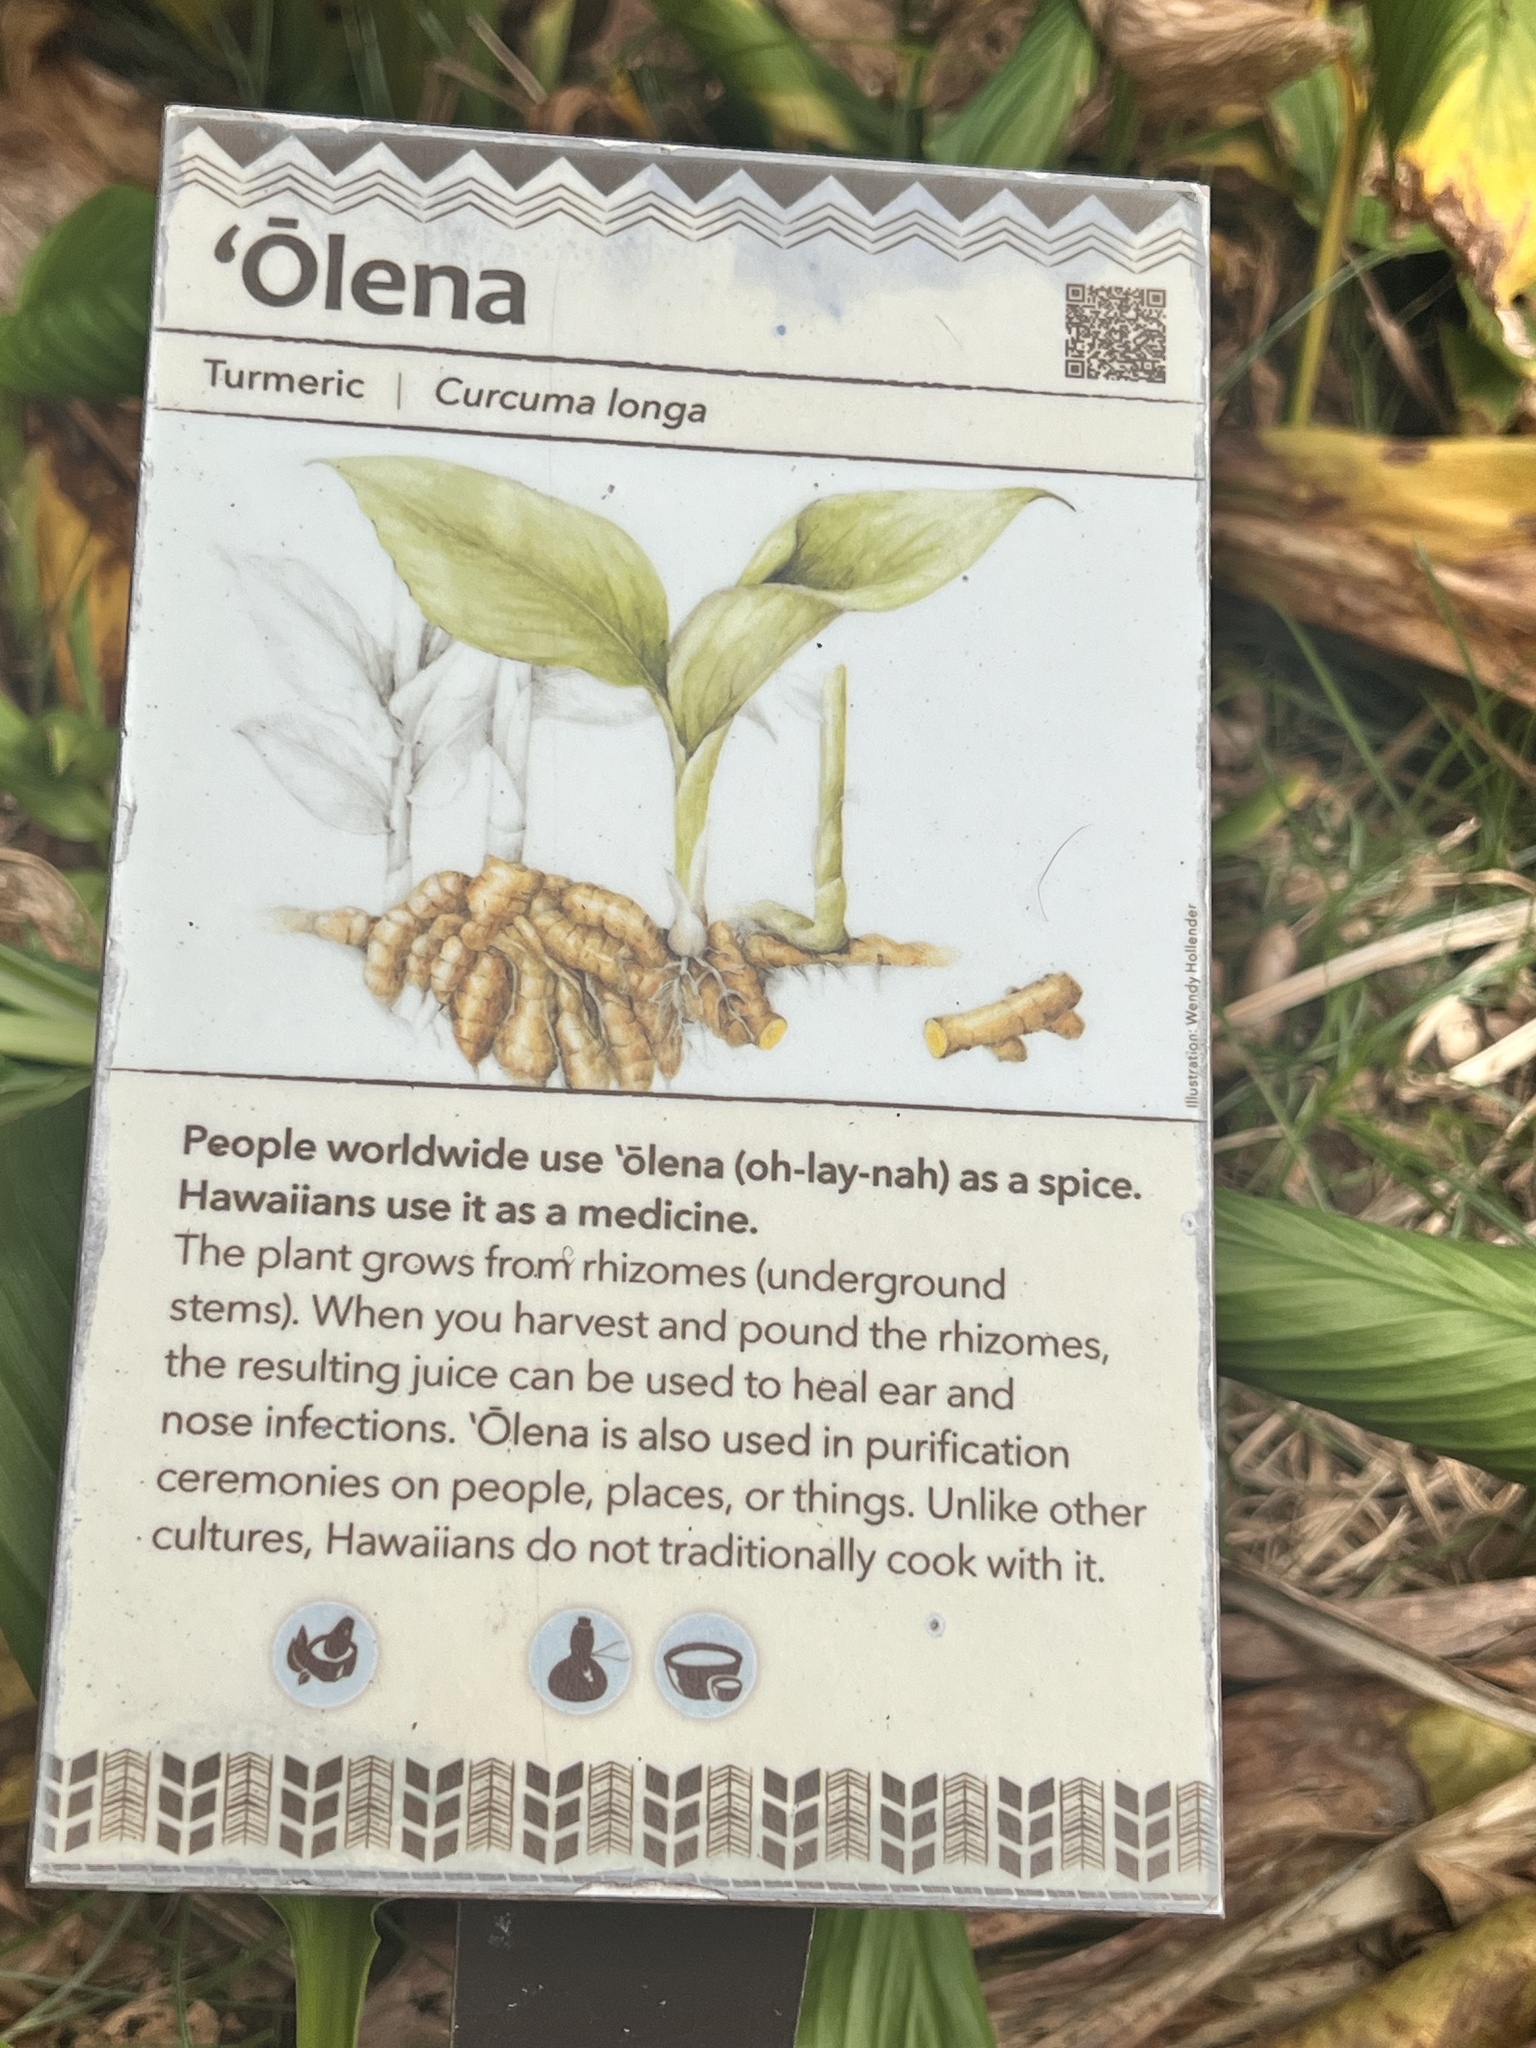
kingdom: Plantae
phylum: Tracheophyta
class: Liliopsida
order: Zingiberales
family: Zingiberaceae
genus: Curcuma
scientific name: Curcuma longa
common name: Turmeric
